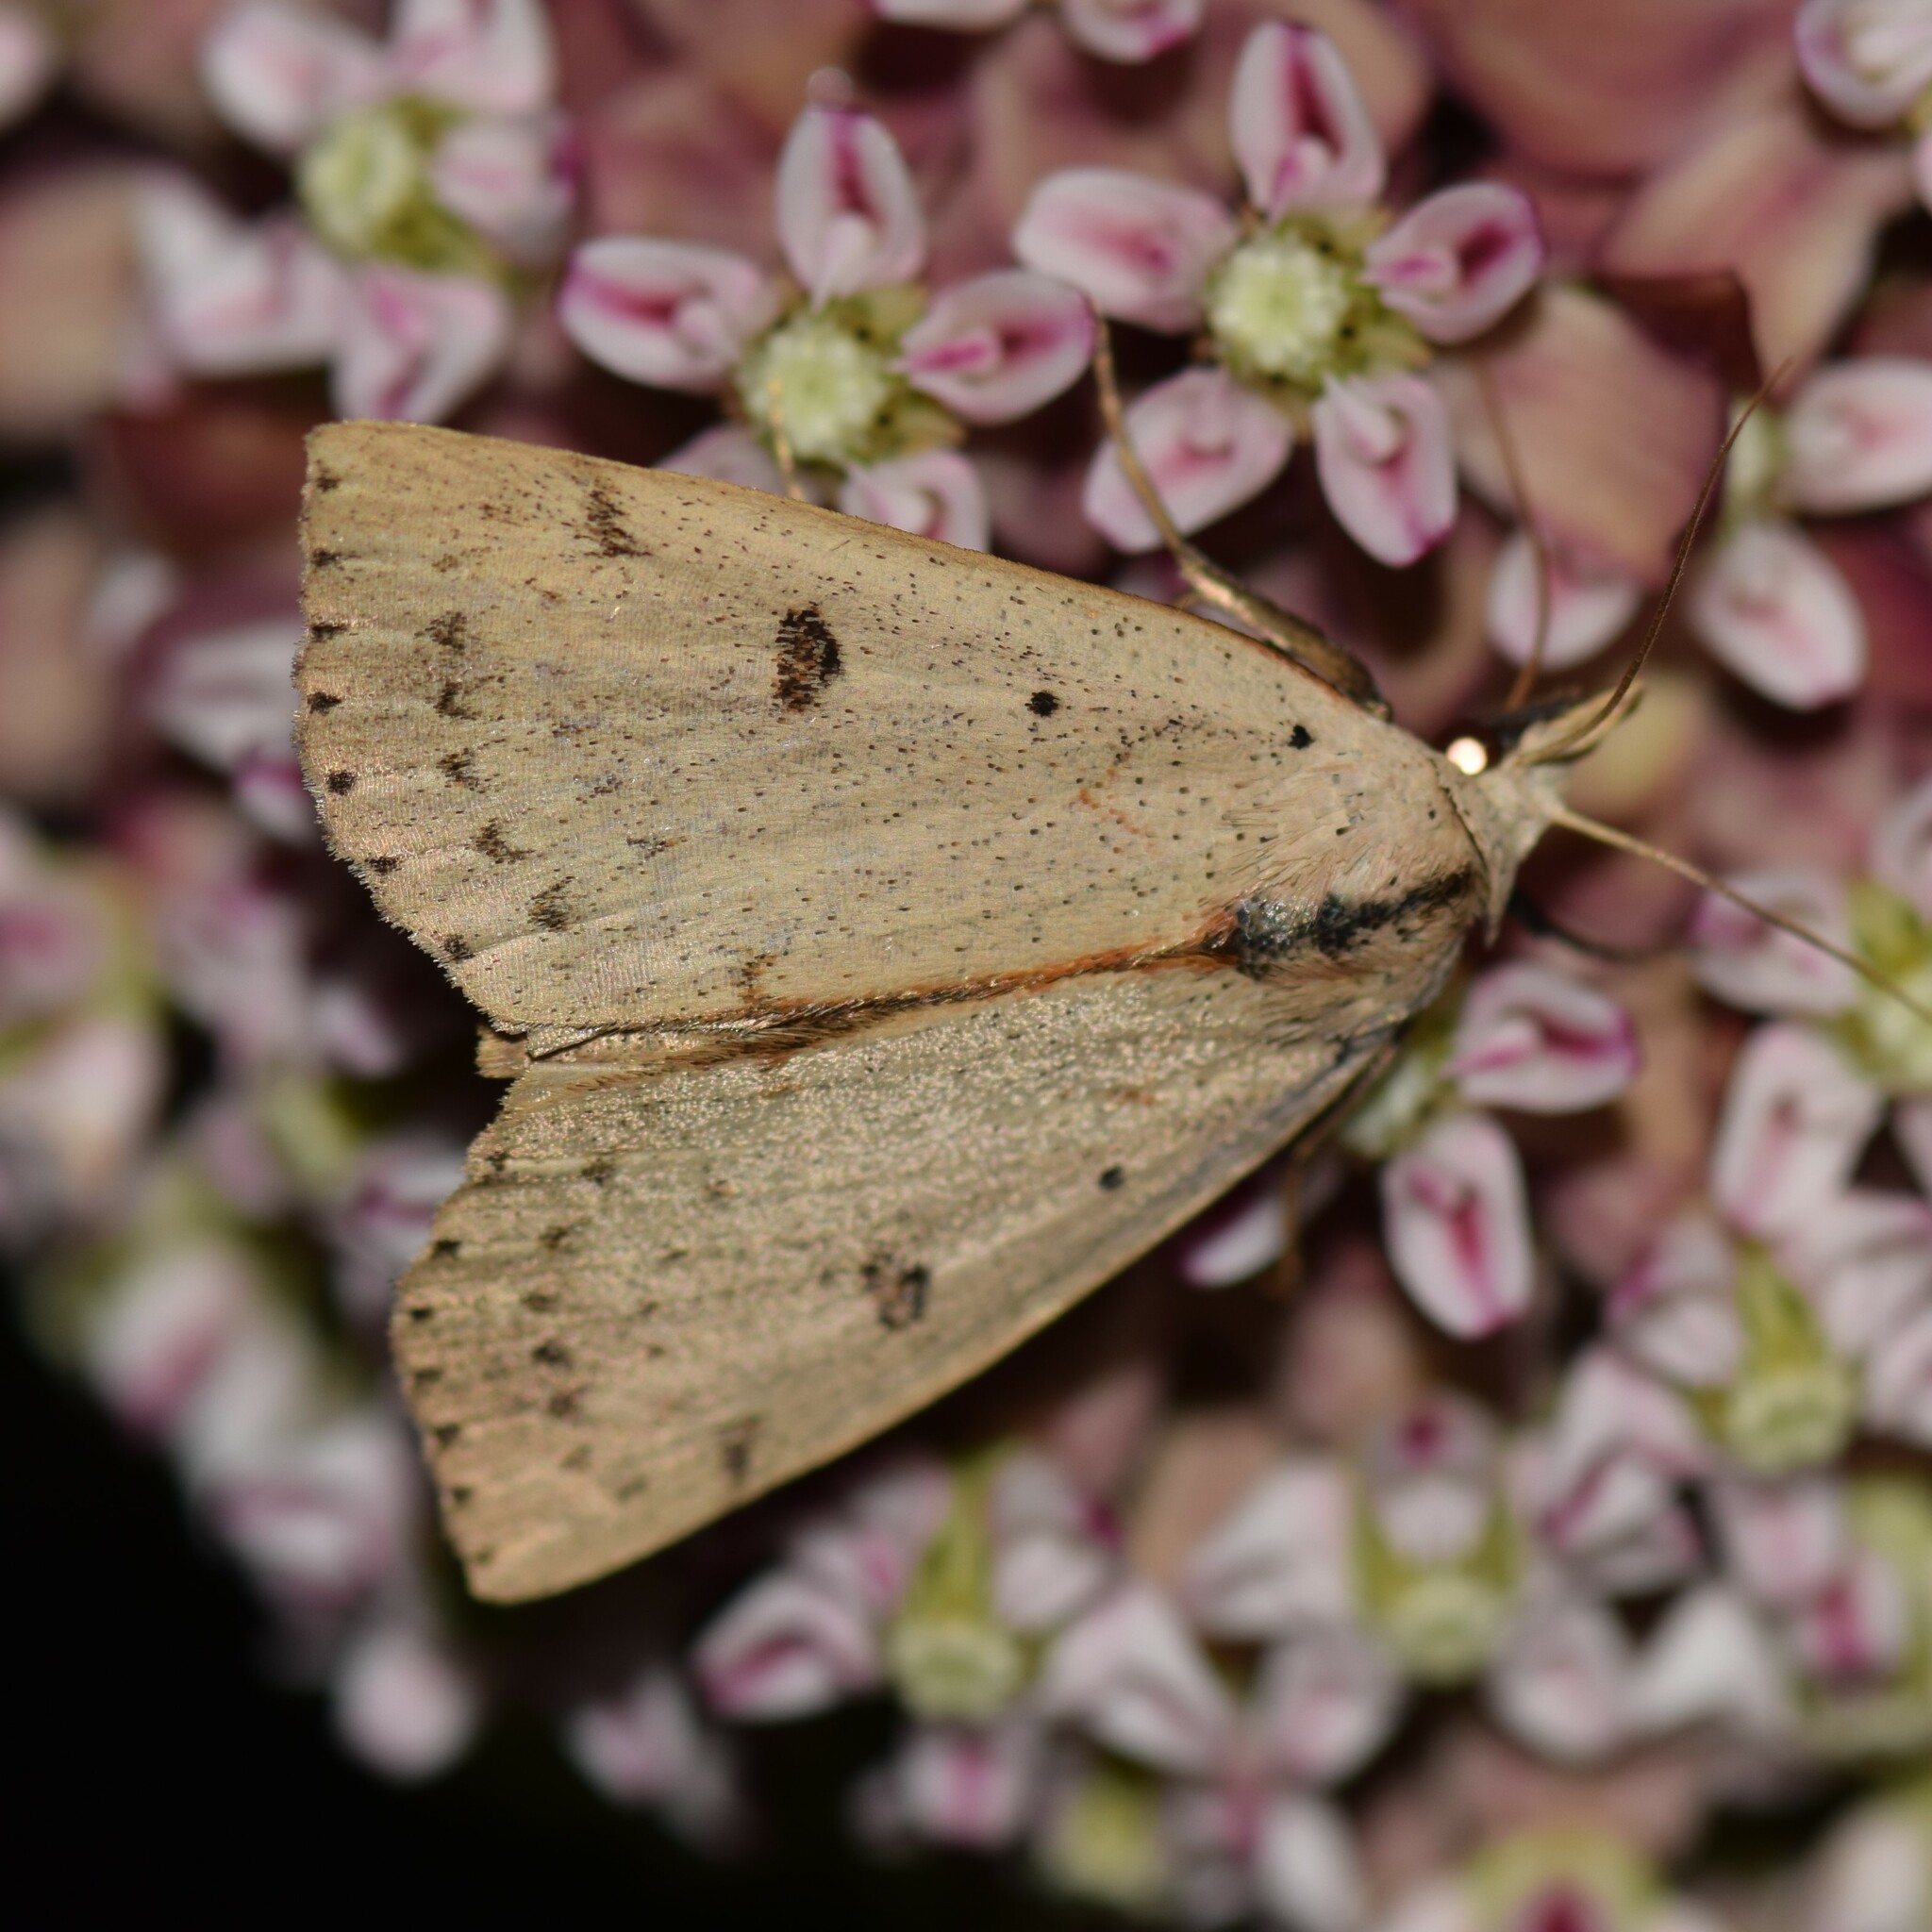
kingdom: Animalia
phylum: Arthropoda
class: Insecta
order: Lepidoptera
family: Erebidae
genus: Scolecocampa
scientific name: Scolecocampa liburna
